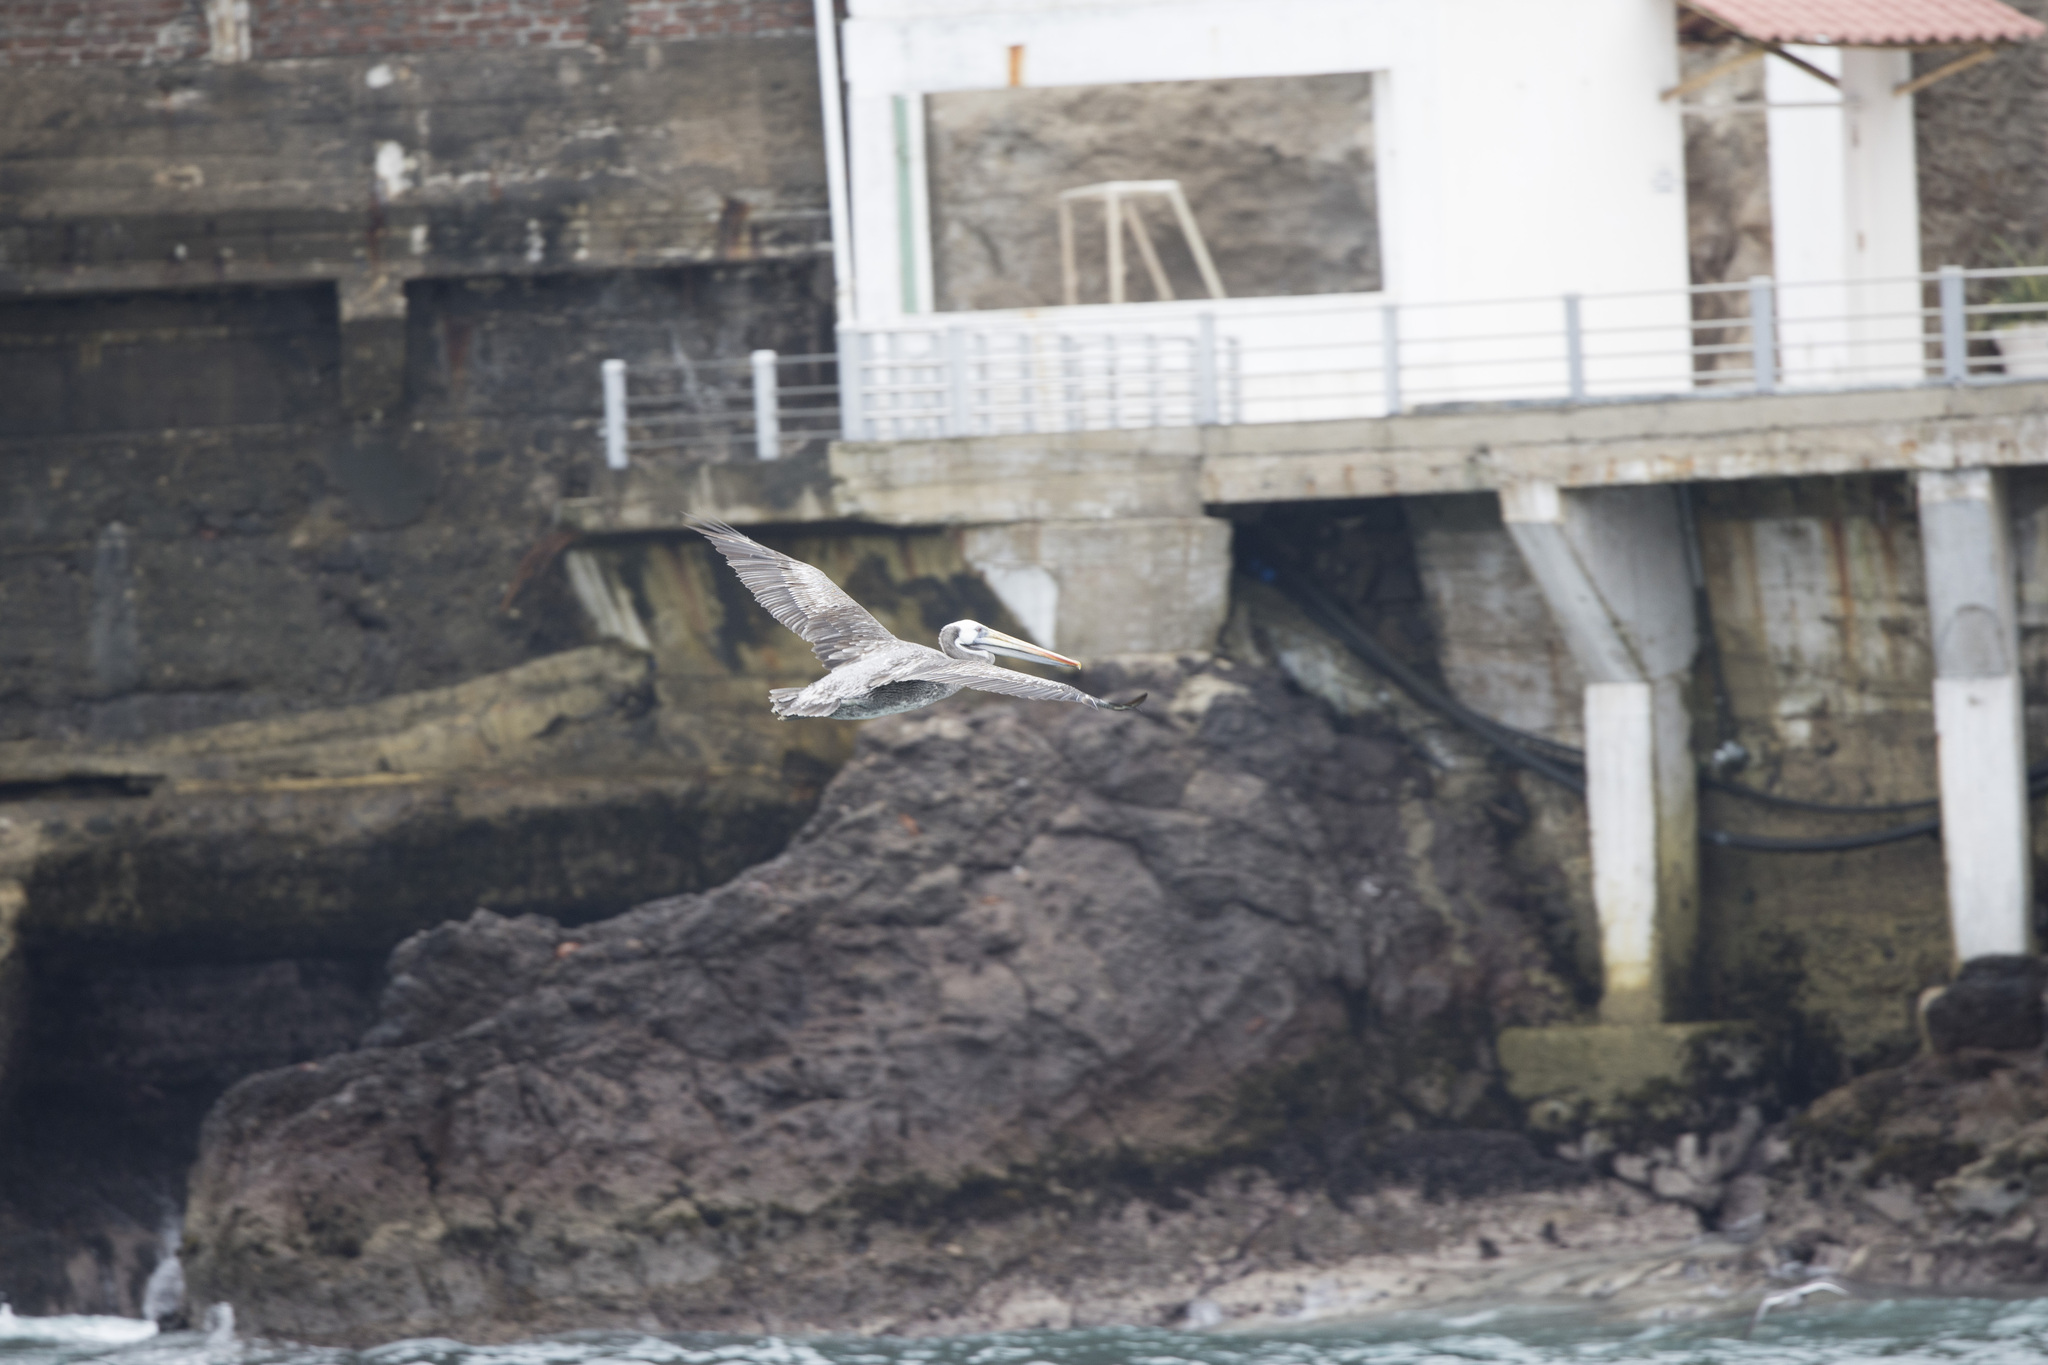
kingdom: Animalia
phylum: Chordata
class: Aves
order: Pelecaniformes
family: Pelecanidae
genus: Pelecanus
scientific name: Pelecanus thagus
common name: Peruvian pelican
